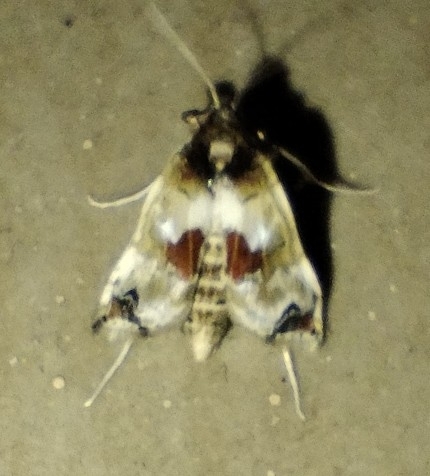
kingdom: Animalia
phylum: Arthropoda
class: Insecta
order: Lepidoptera
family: Crambidae
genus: Leucinodes
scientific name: Leucinodes orbonalis
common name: Aubergine pearl
